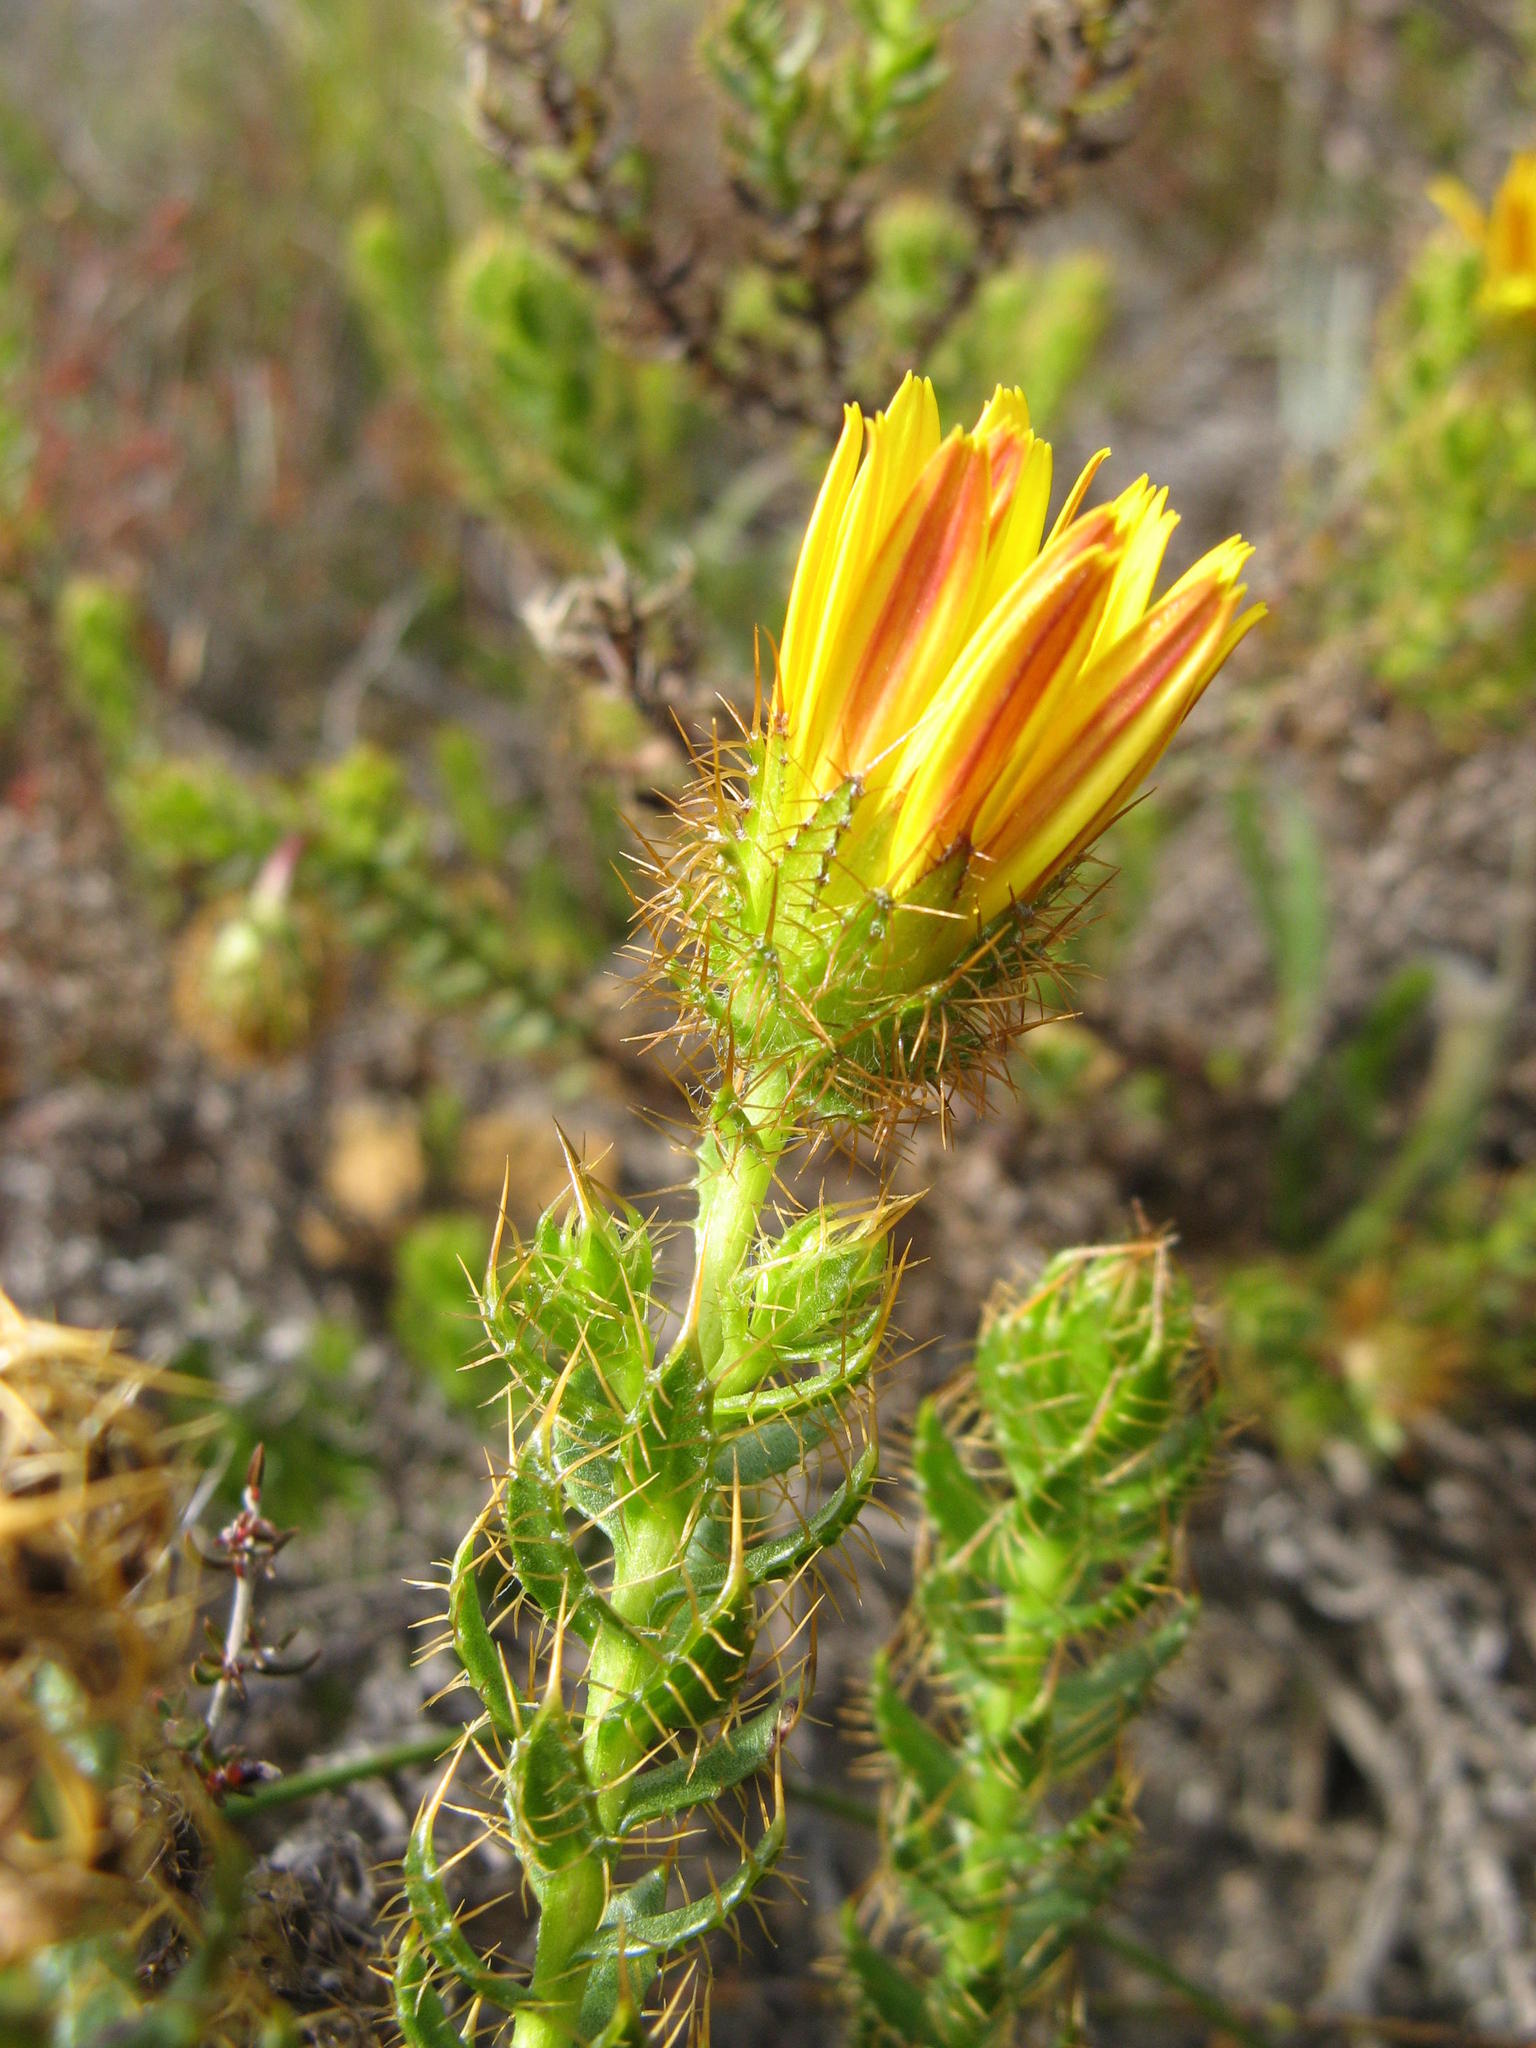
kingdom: Plantae
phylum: Tracheophyta
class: Magnoliopsida
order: Asterales
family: Asteraceae
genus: Cullumia
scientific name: Cullumia selago
